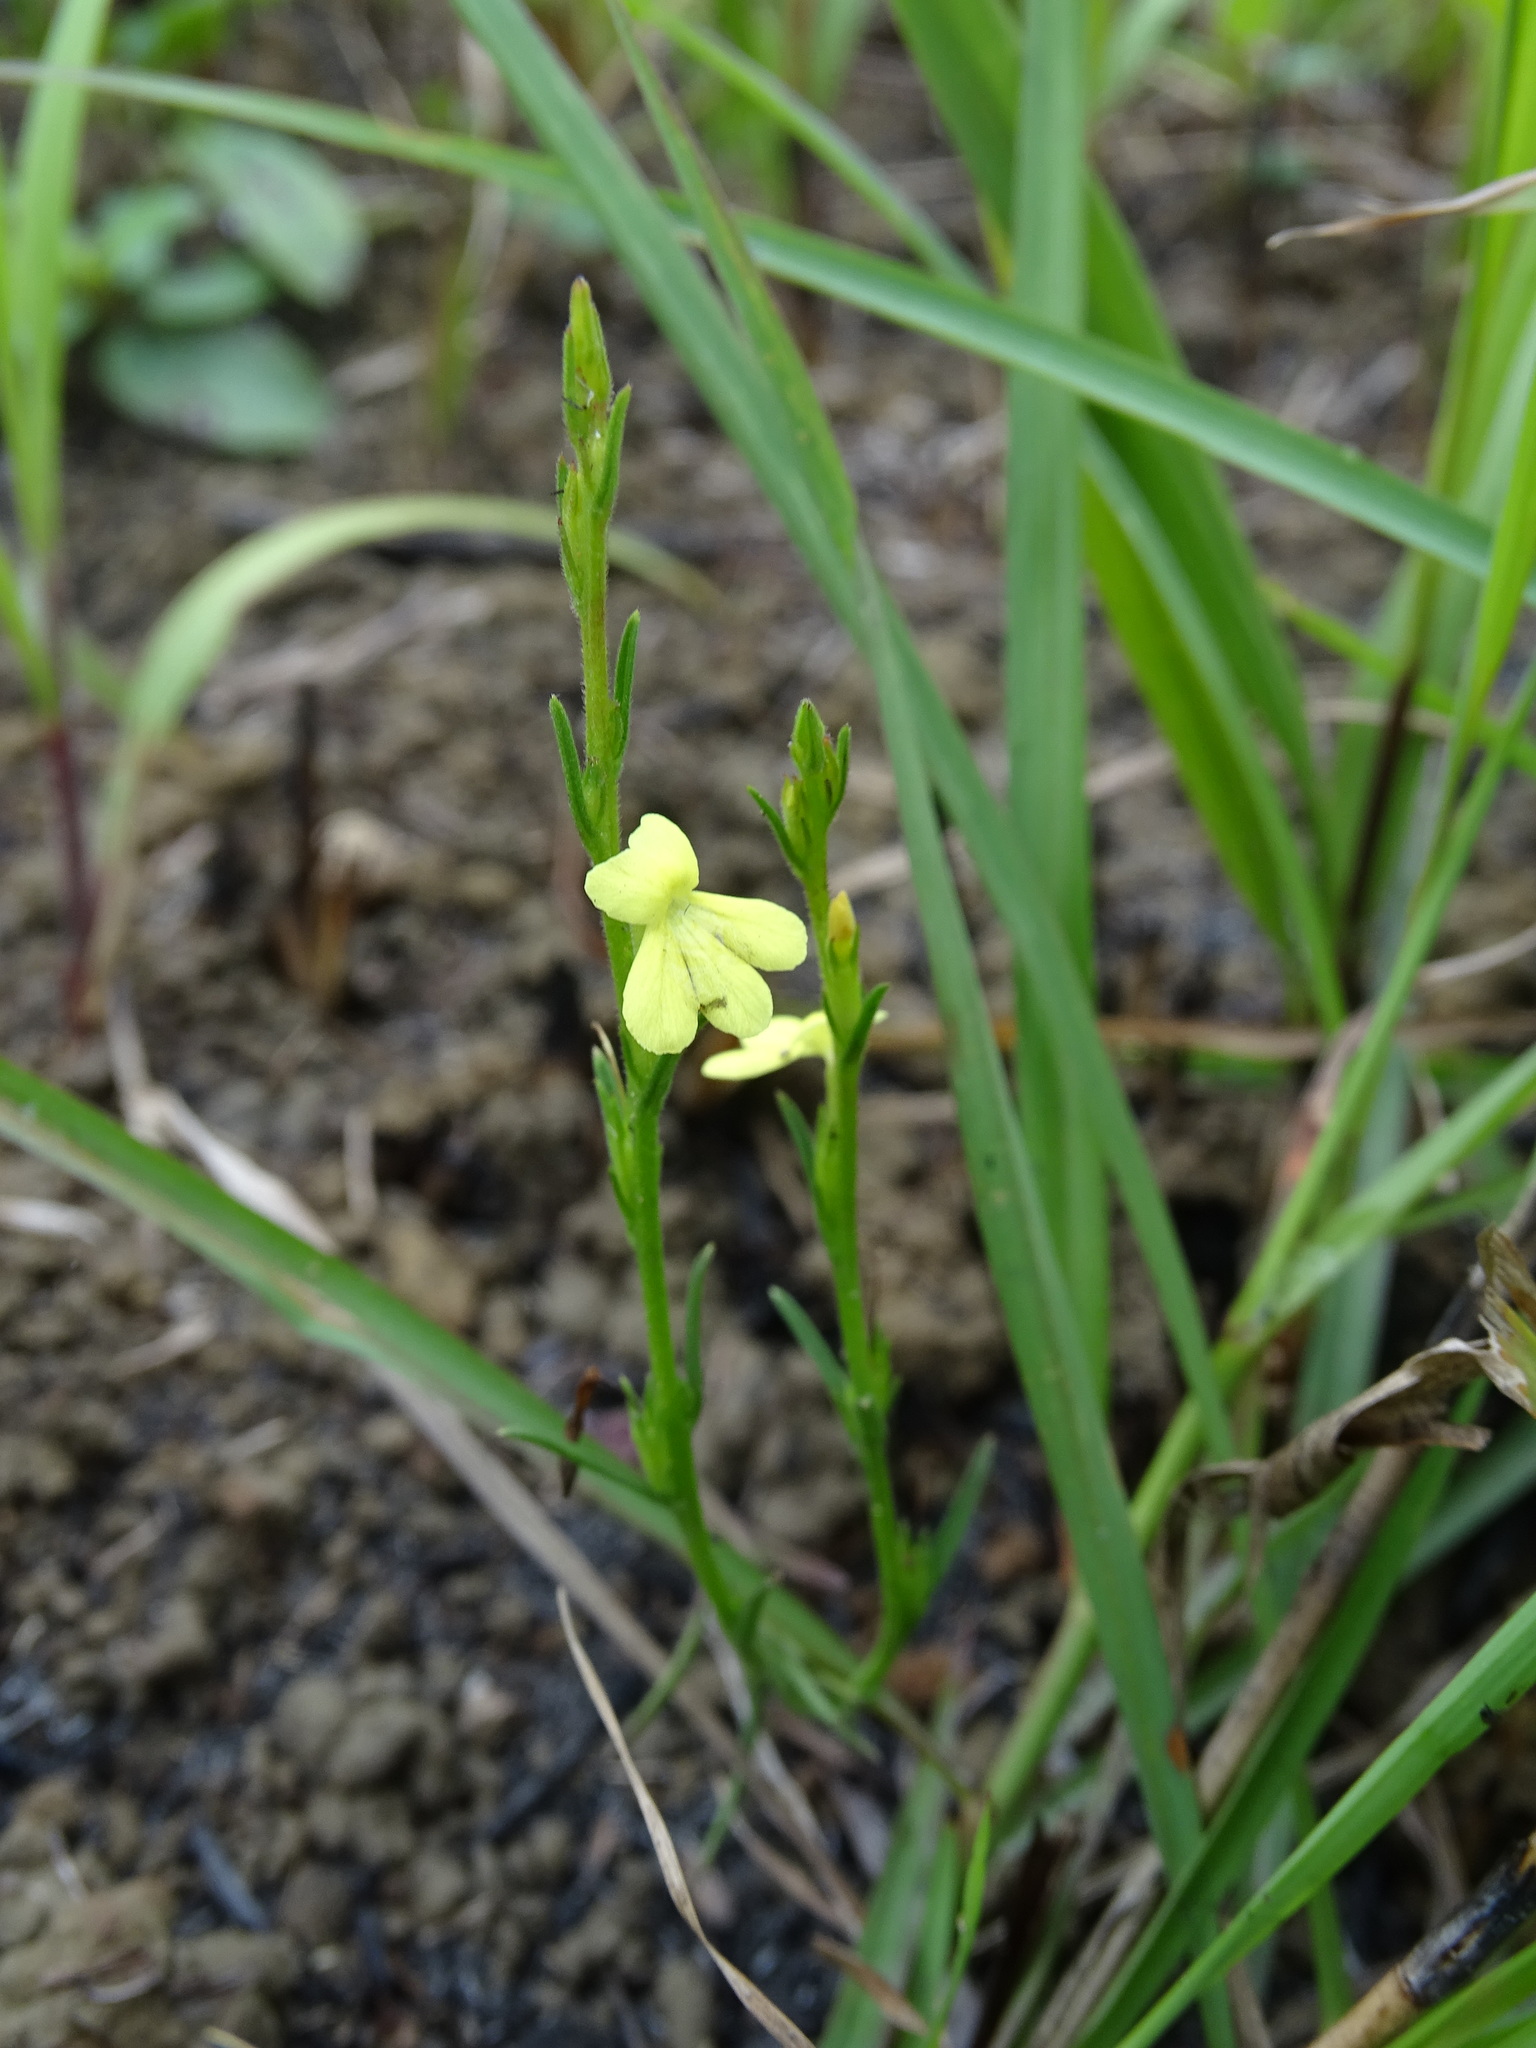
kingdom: Plantae
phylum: Tracheophyta
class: Magnoliopsida
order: Lamiales
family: Orobanchaceae
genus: Striga
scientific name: Striga asiatica
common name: Asiatic witchweed
